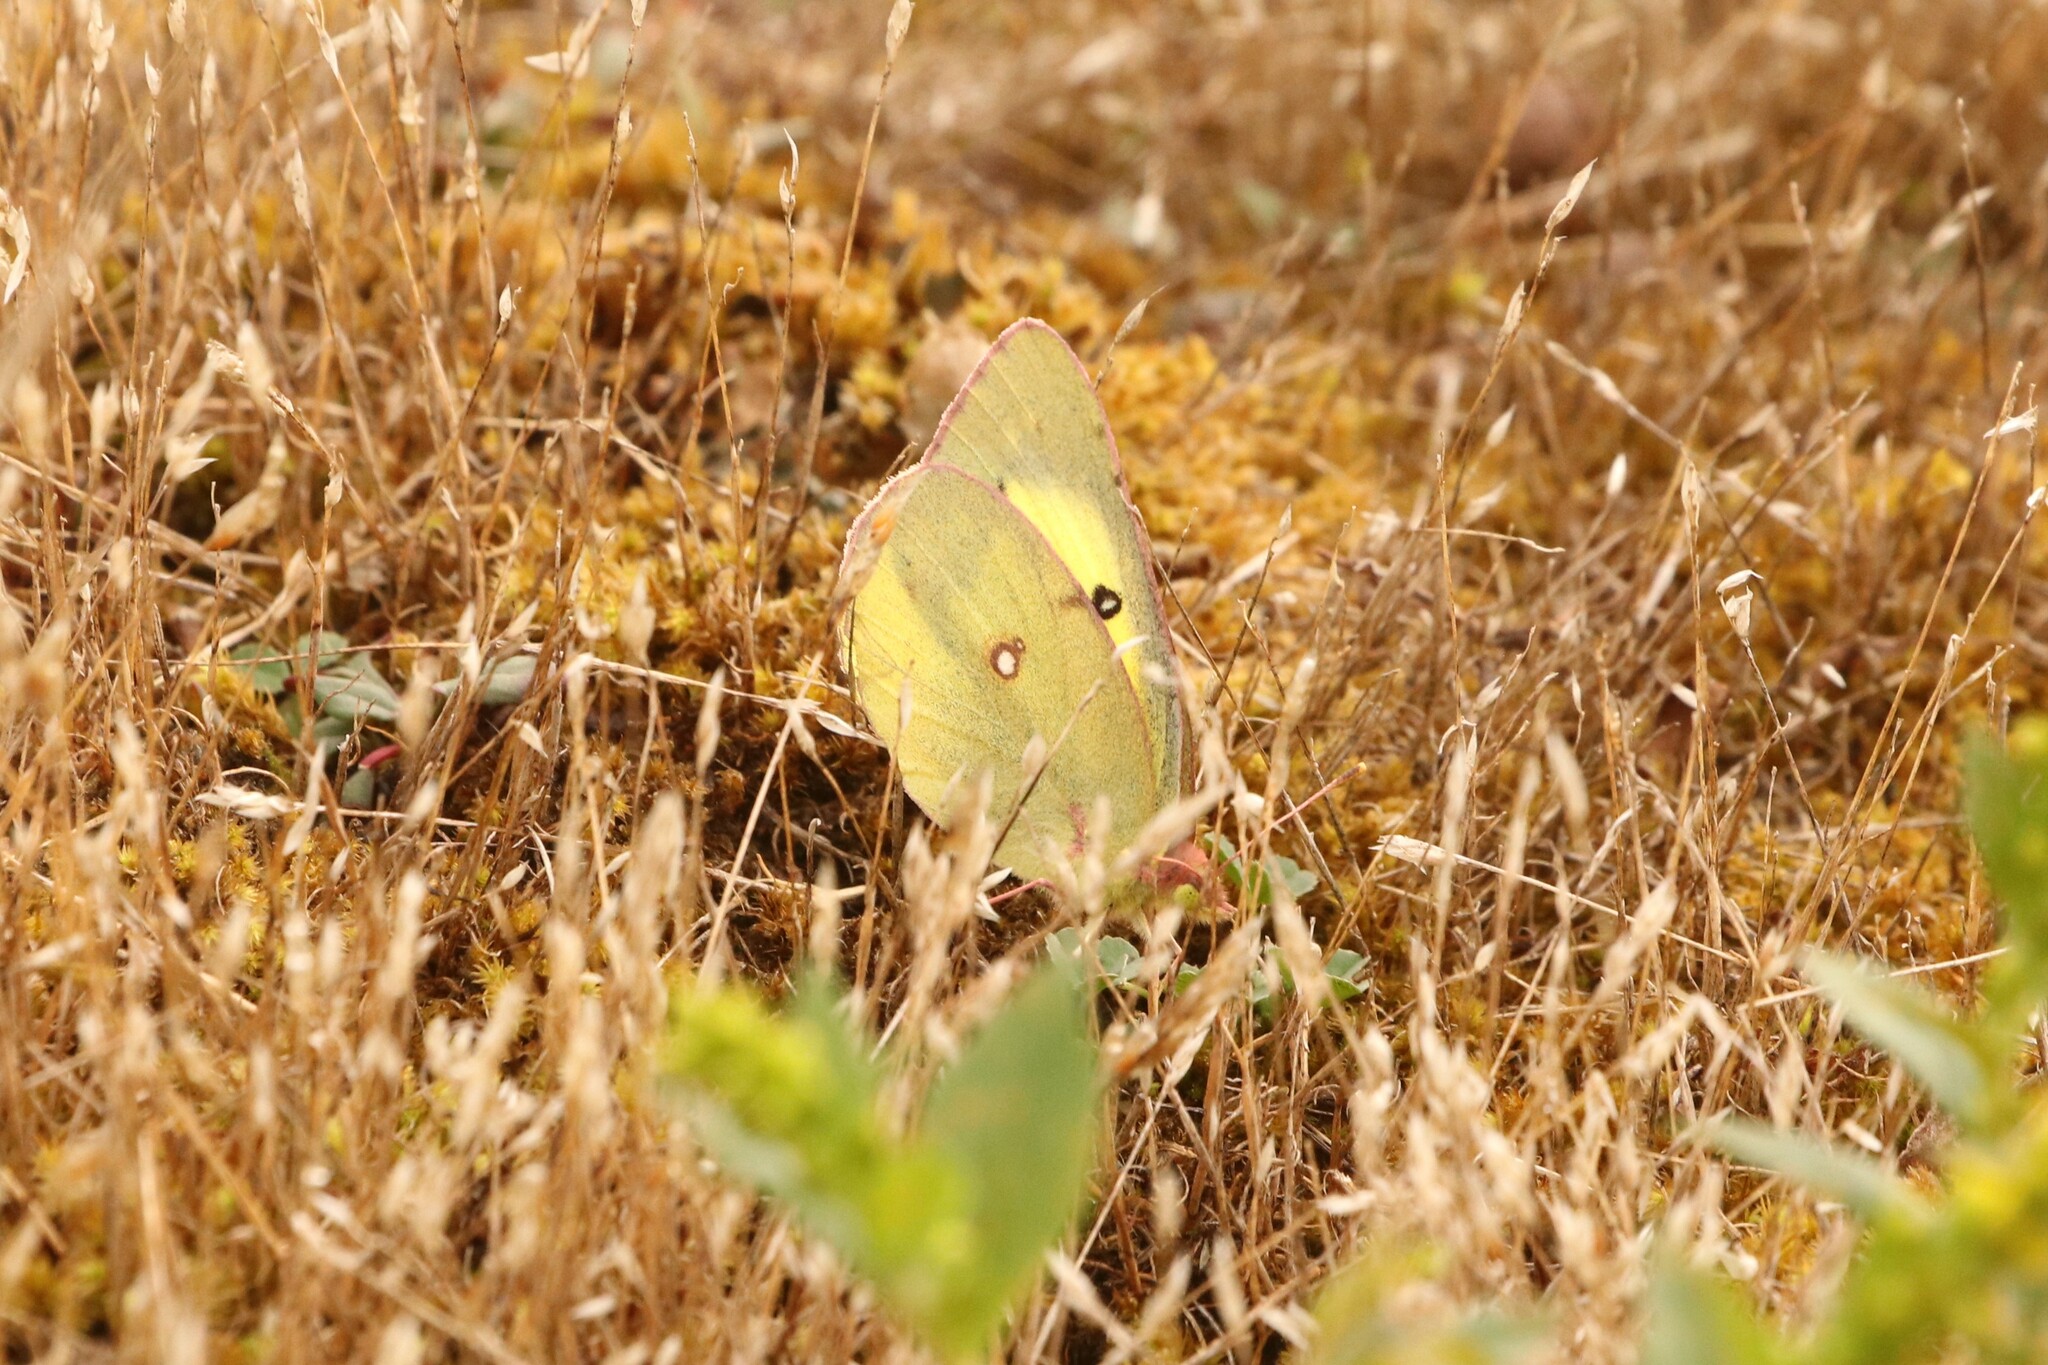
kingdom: Animalia
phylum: Arthropoda
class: Insecta
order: Lepidoptera
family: Pieridae
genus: Colias
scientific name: Colias philodice
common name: Clouded sulphur
